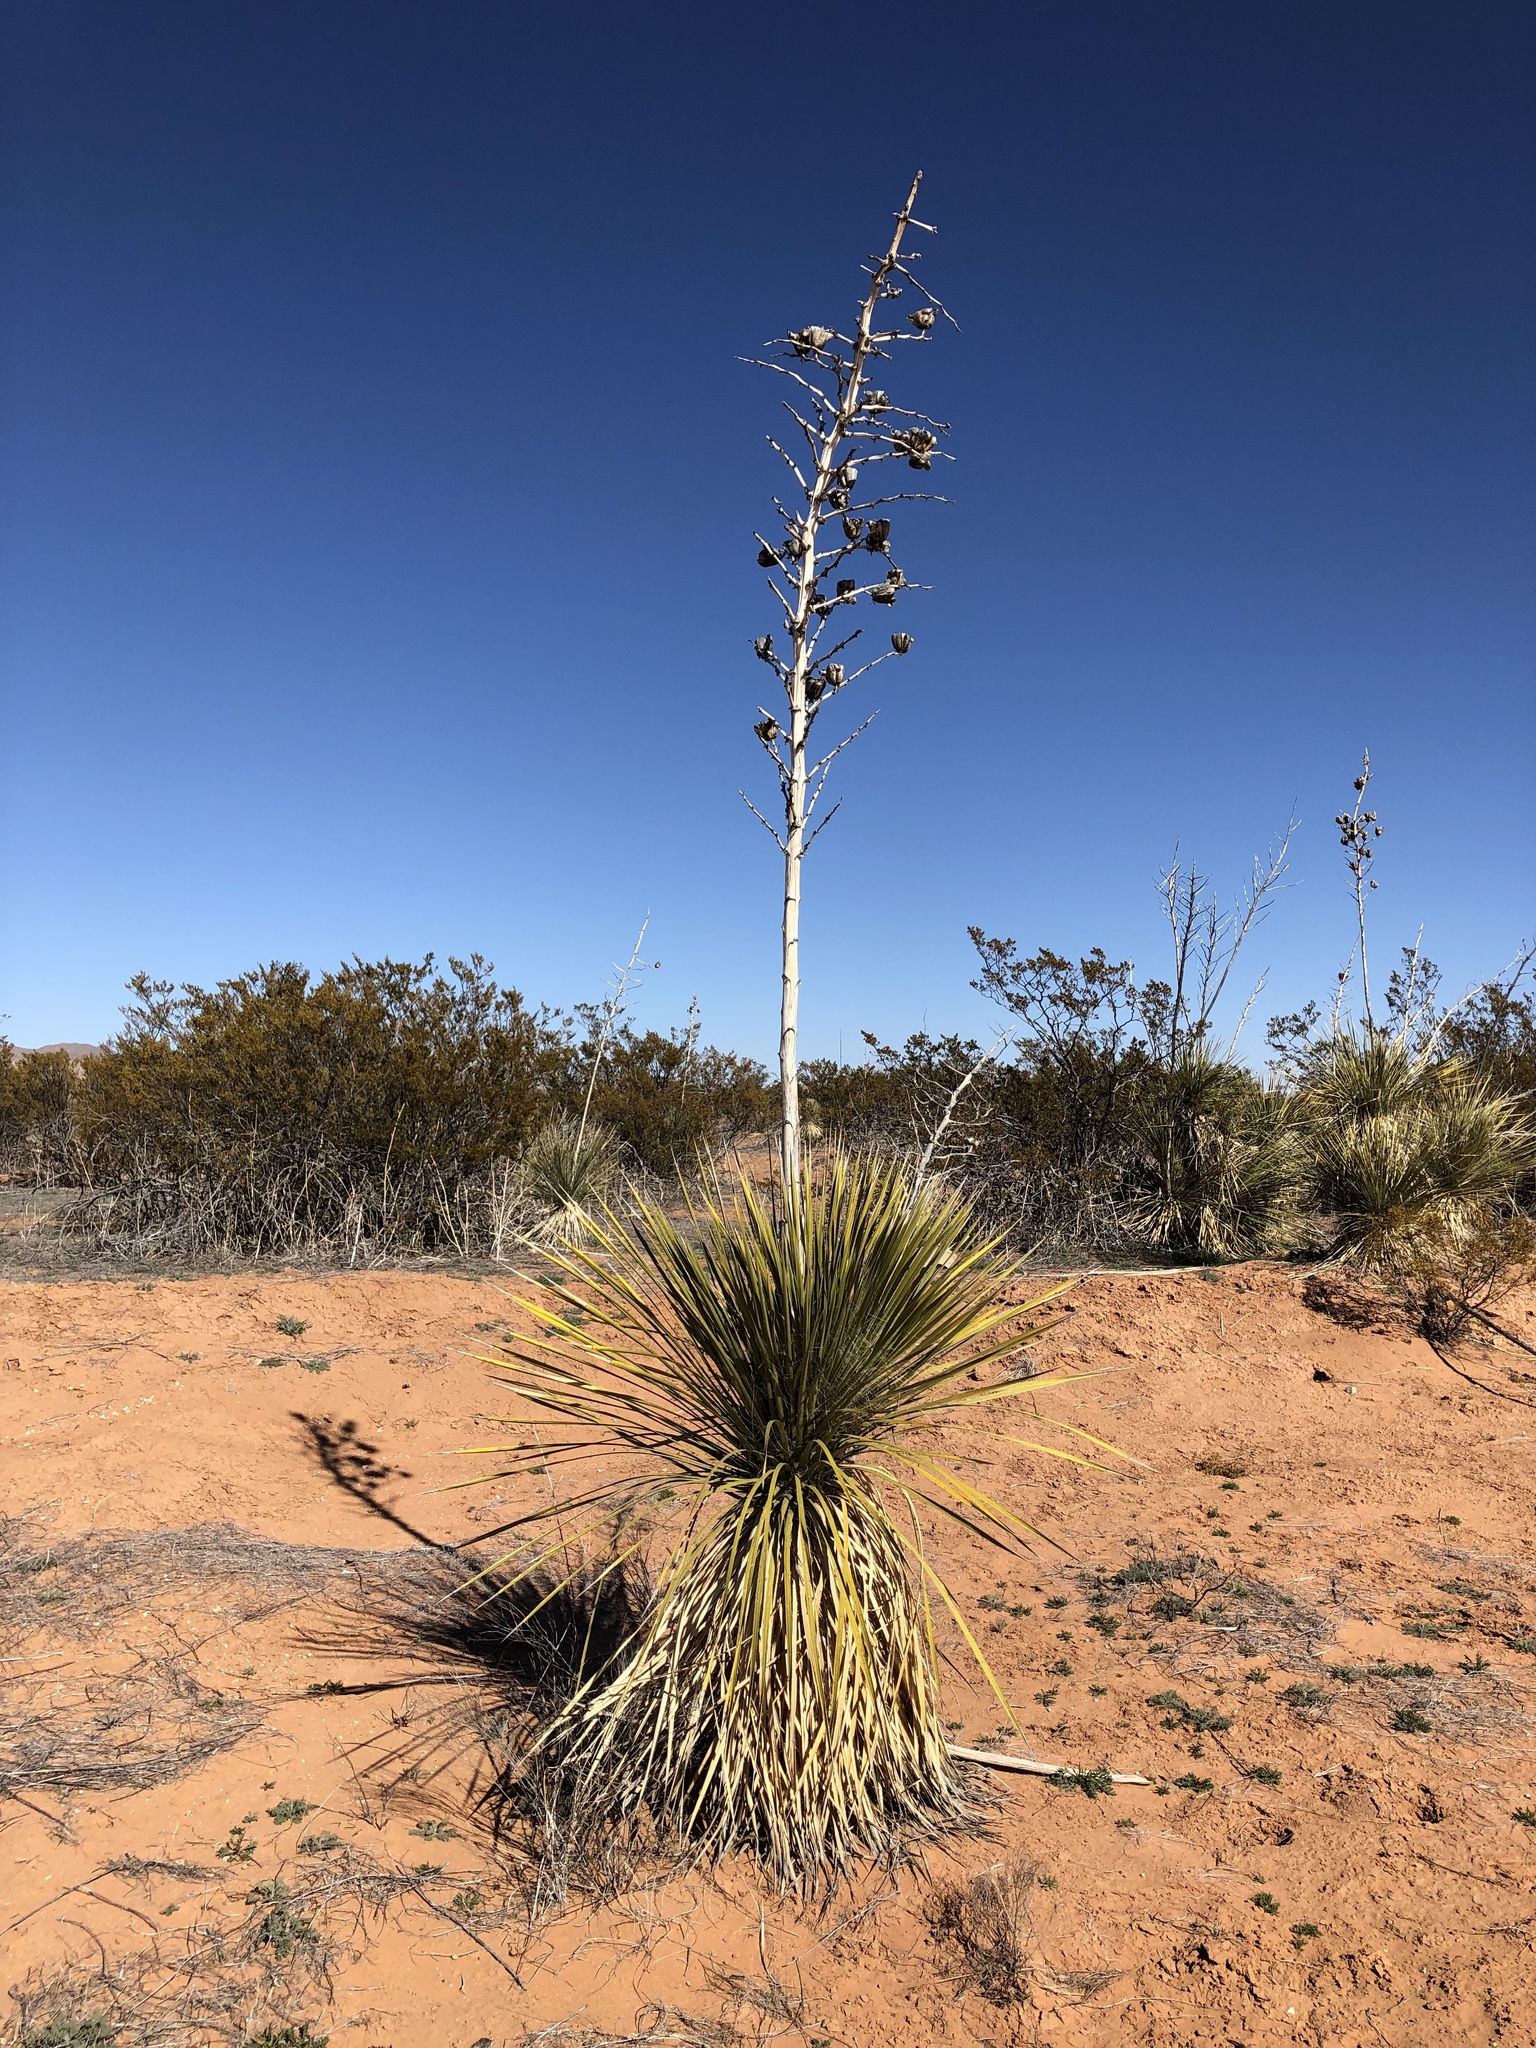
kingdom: Plantae
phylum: Tracheophyta
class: Liliopsida
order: Asparagales
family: Asparagaceae
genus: Yucca
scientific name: Yucca elata
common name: Palmella
